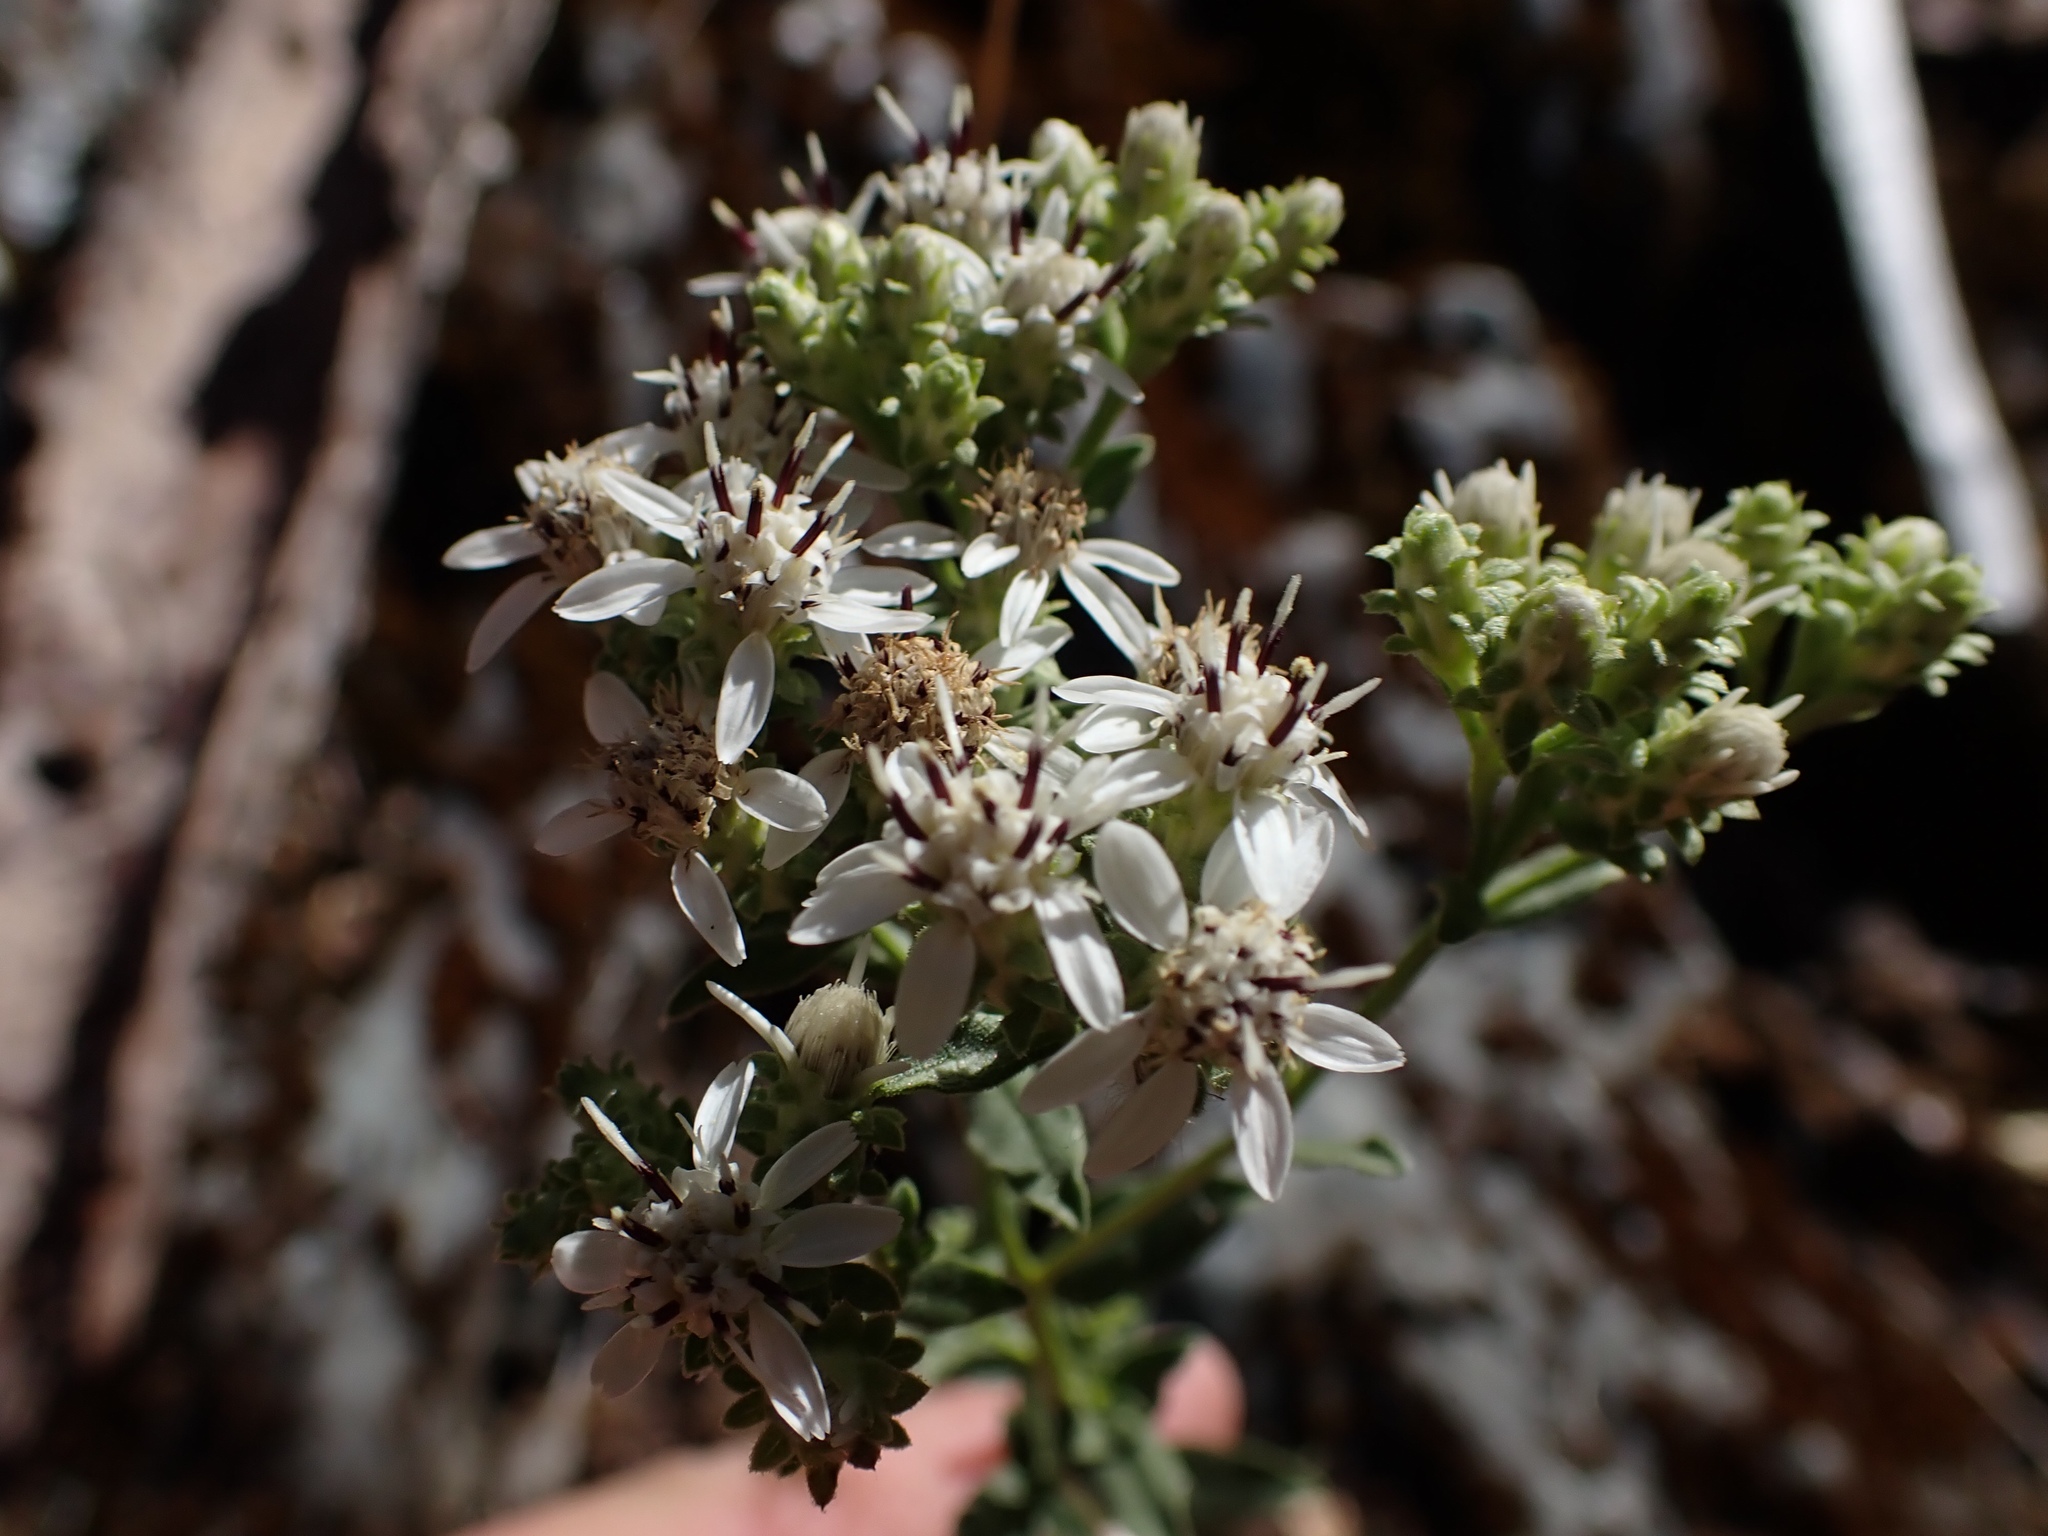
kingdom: Plantae
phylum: Tracheophyta
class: Magnoliopsida
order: Asterales
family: Asteraceae
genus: Sericocarpus
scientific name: Sericocarpus oregonensis
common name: Oregon white-top aster
